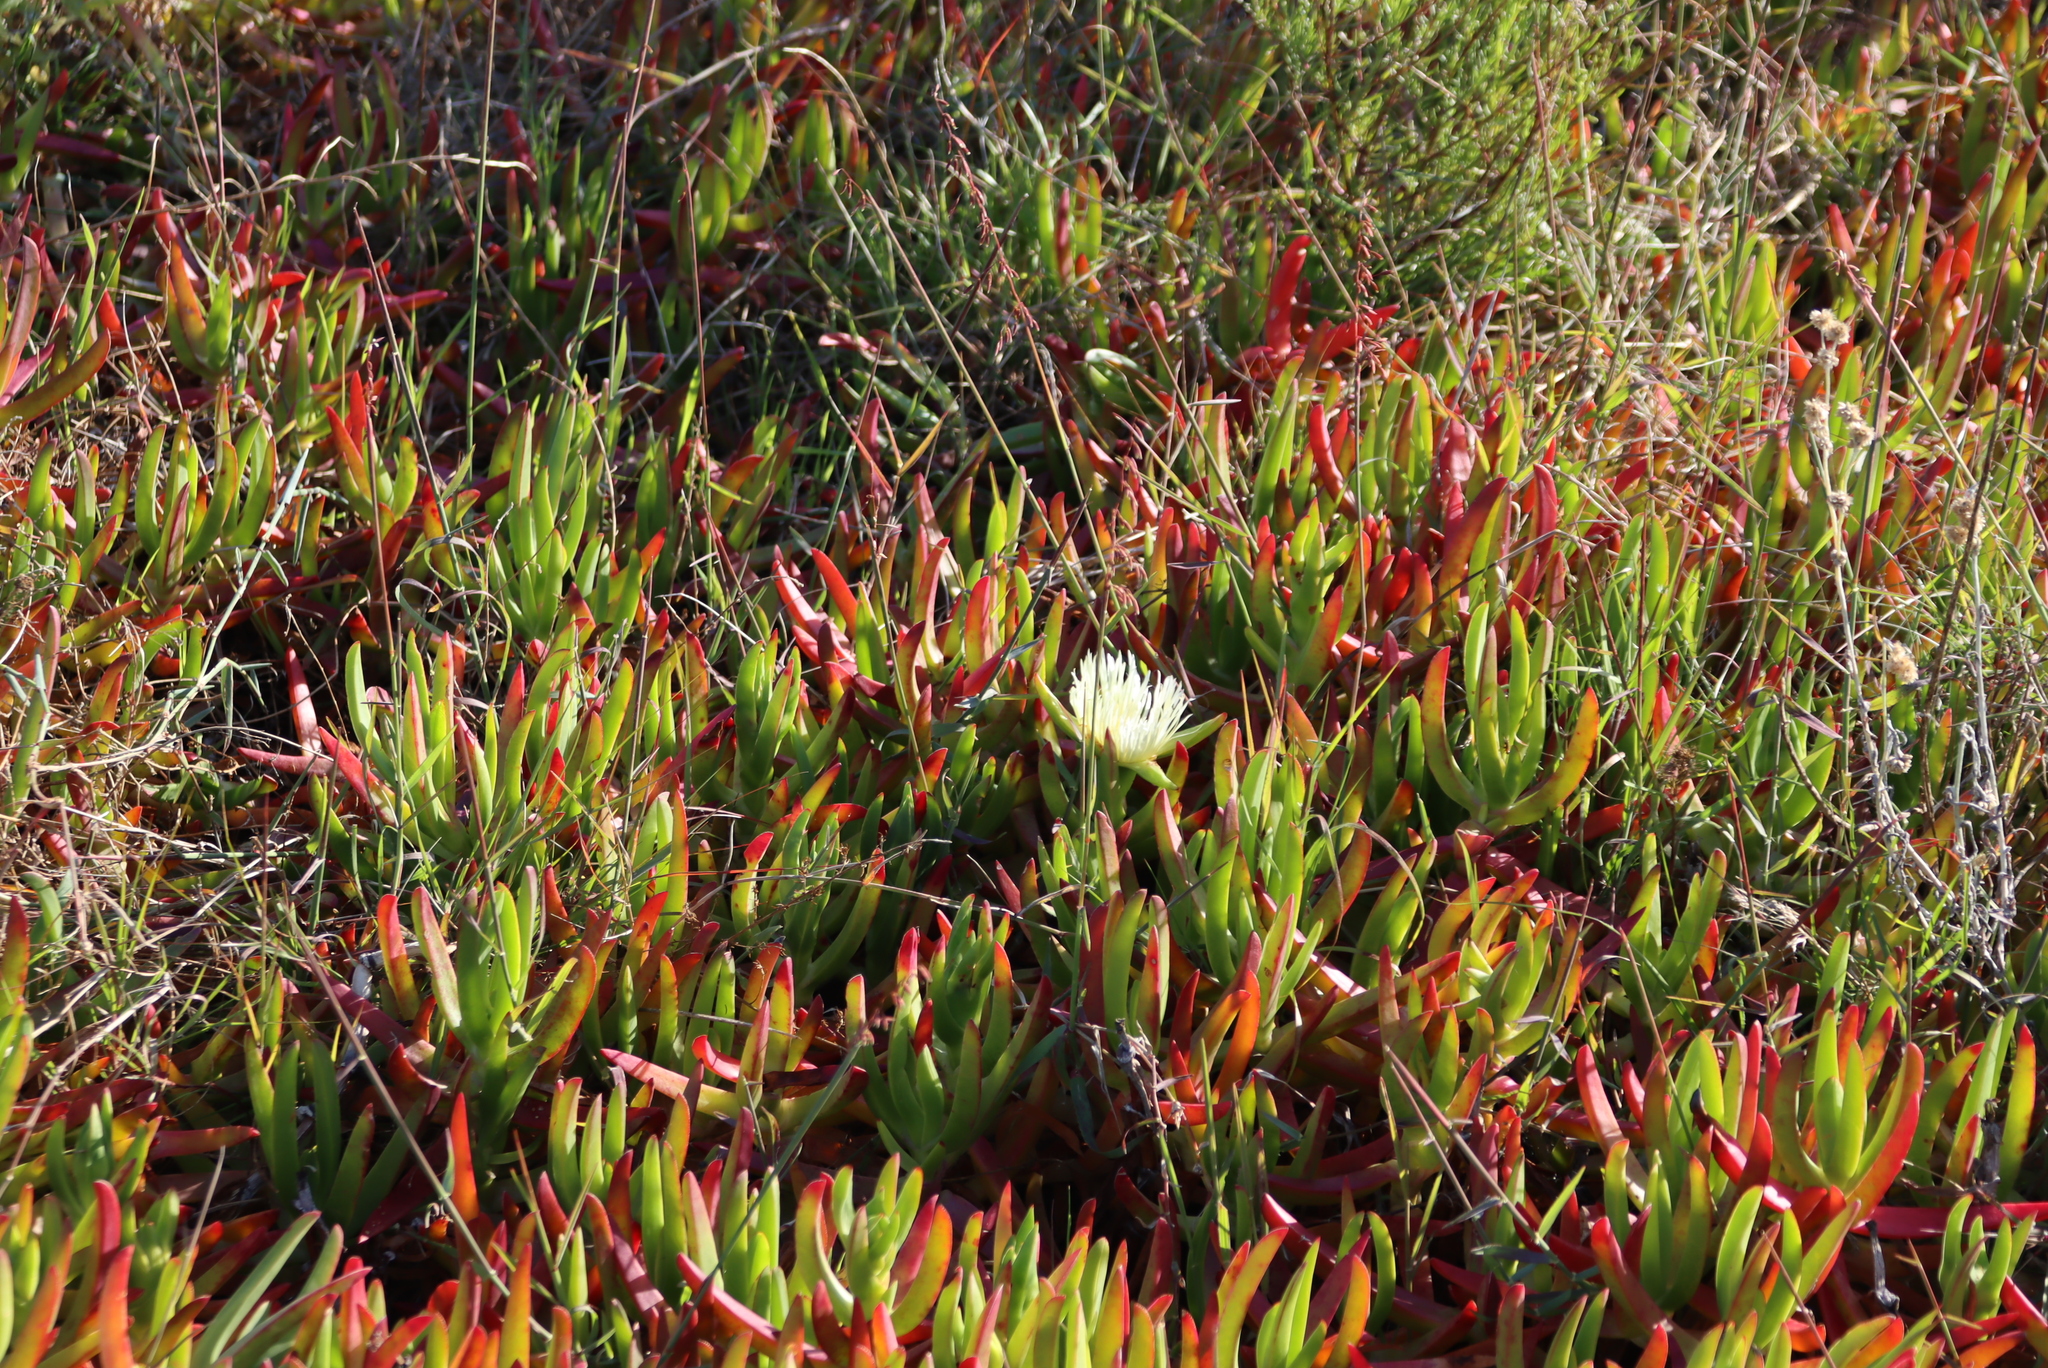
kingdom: Plantae
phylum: Tracheophyta
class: Magnoliopsida
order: Caryophyllales
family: Aizoaceae
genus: Carpobrotus
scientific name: Carpobrotus edulis
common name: Hottentot-fig
